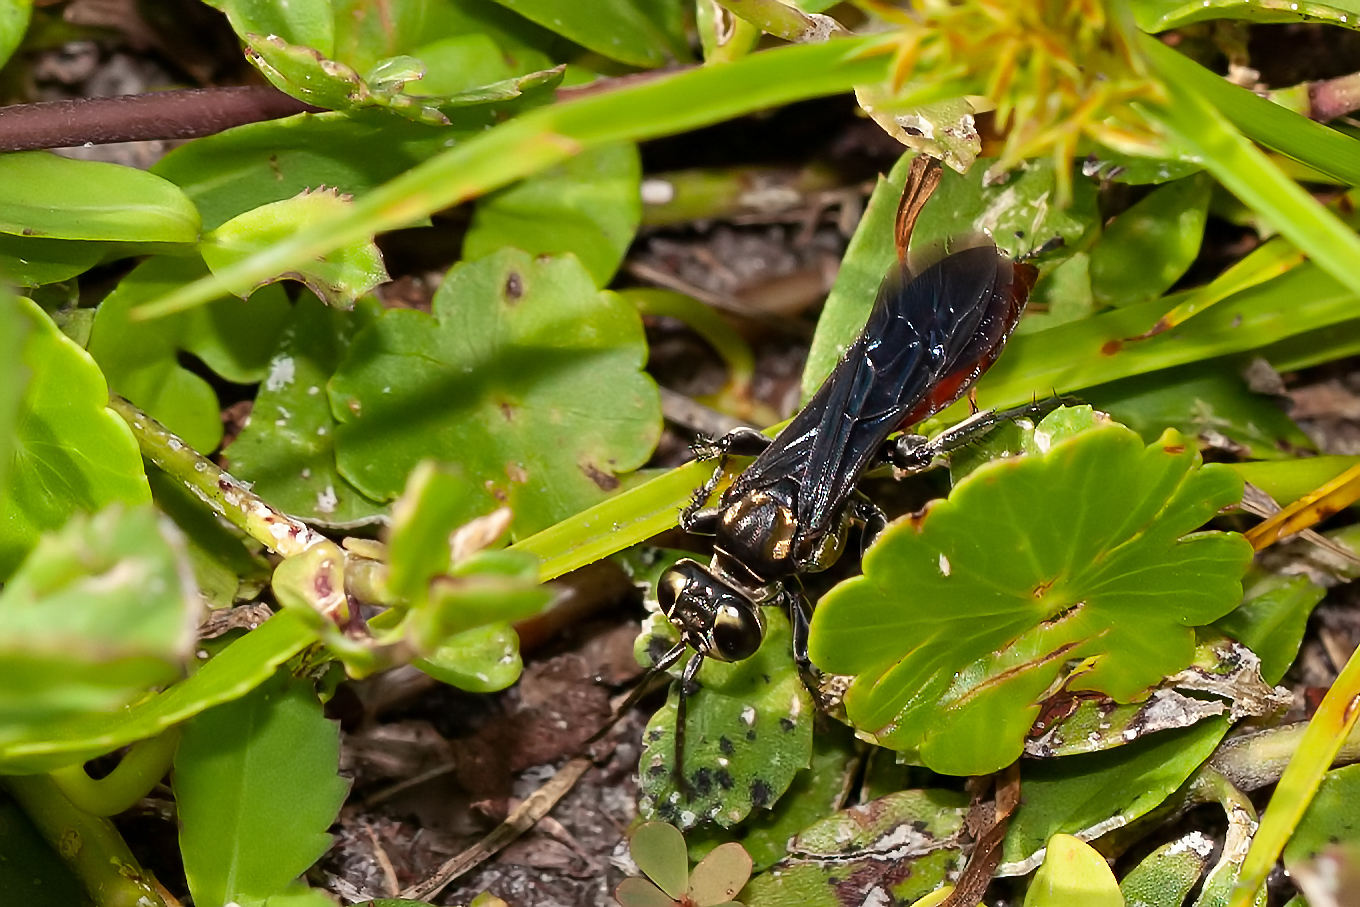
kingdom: Animalia
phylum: Arthropoda
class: Insecta
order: Hymenoptera
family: Crabronidae
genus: Larra
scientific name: Larra bicolor
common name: Wasp
